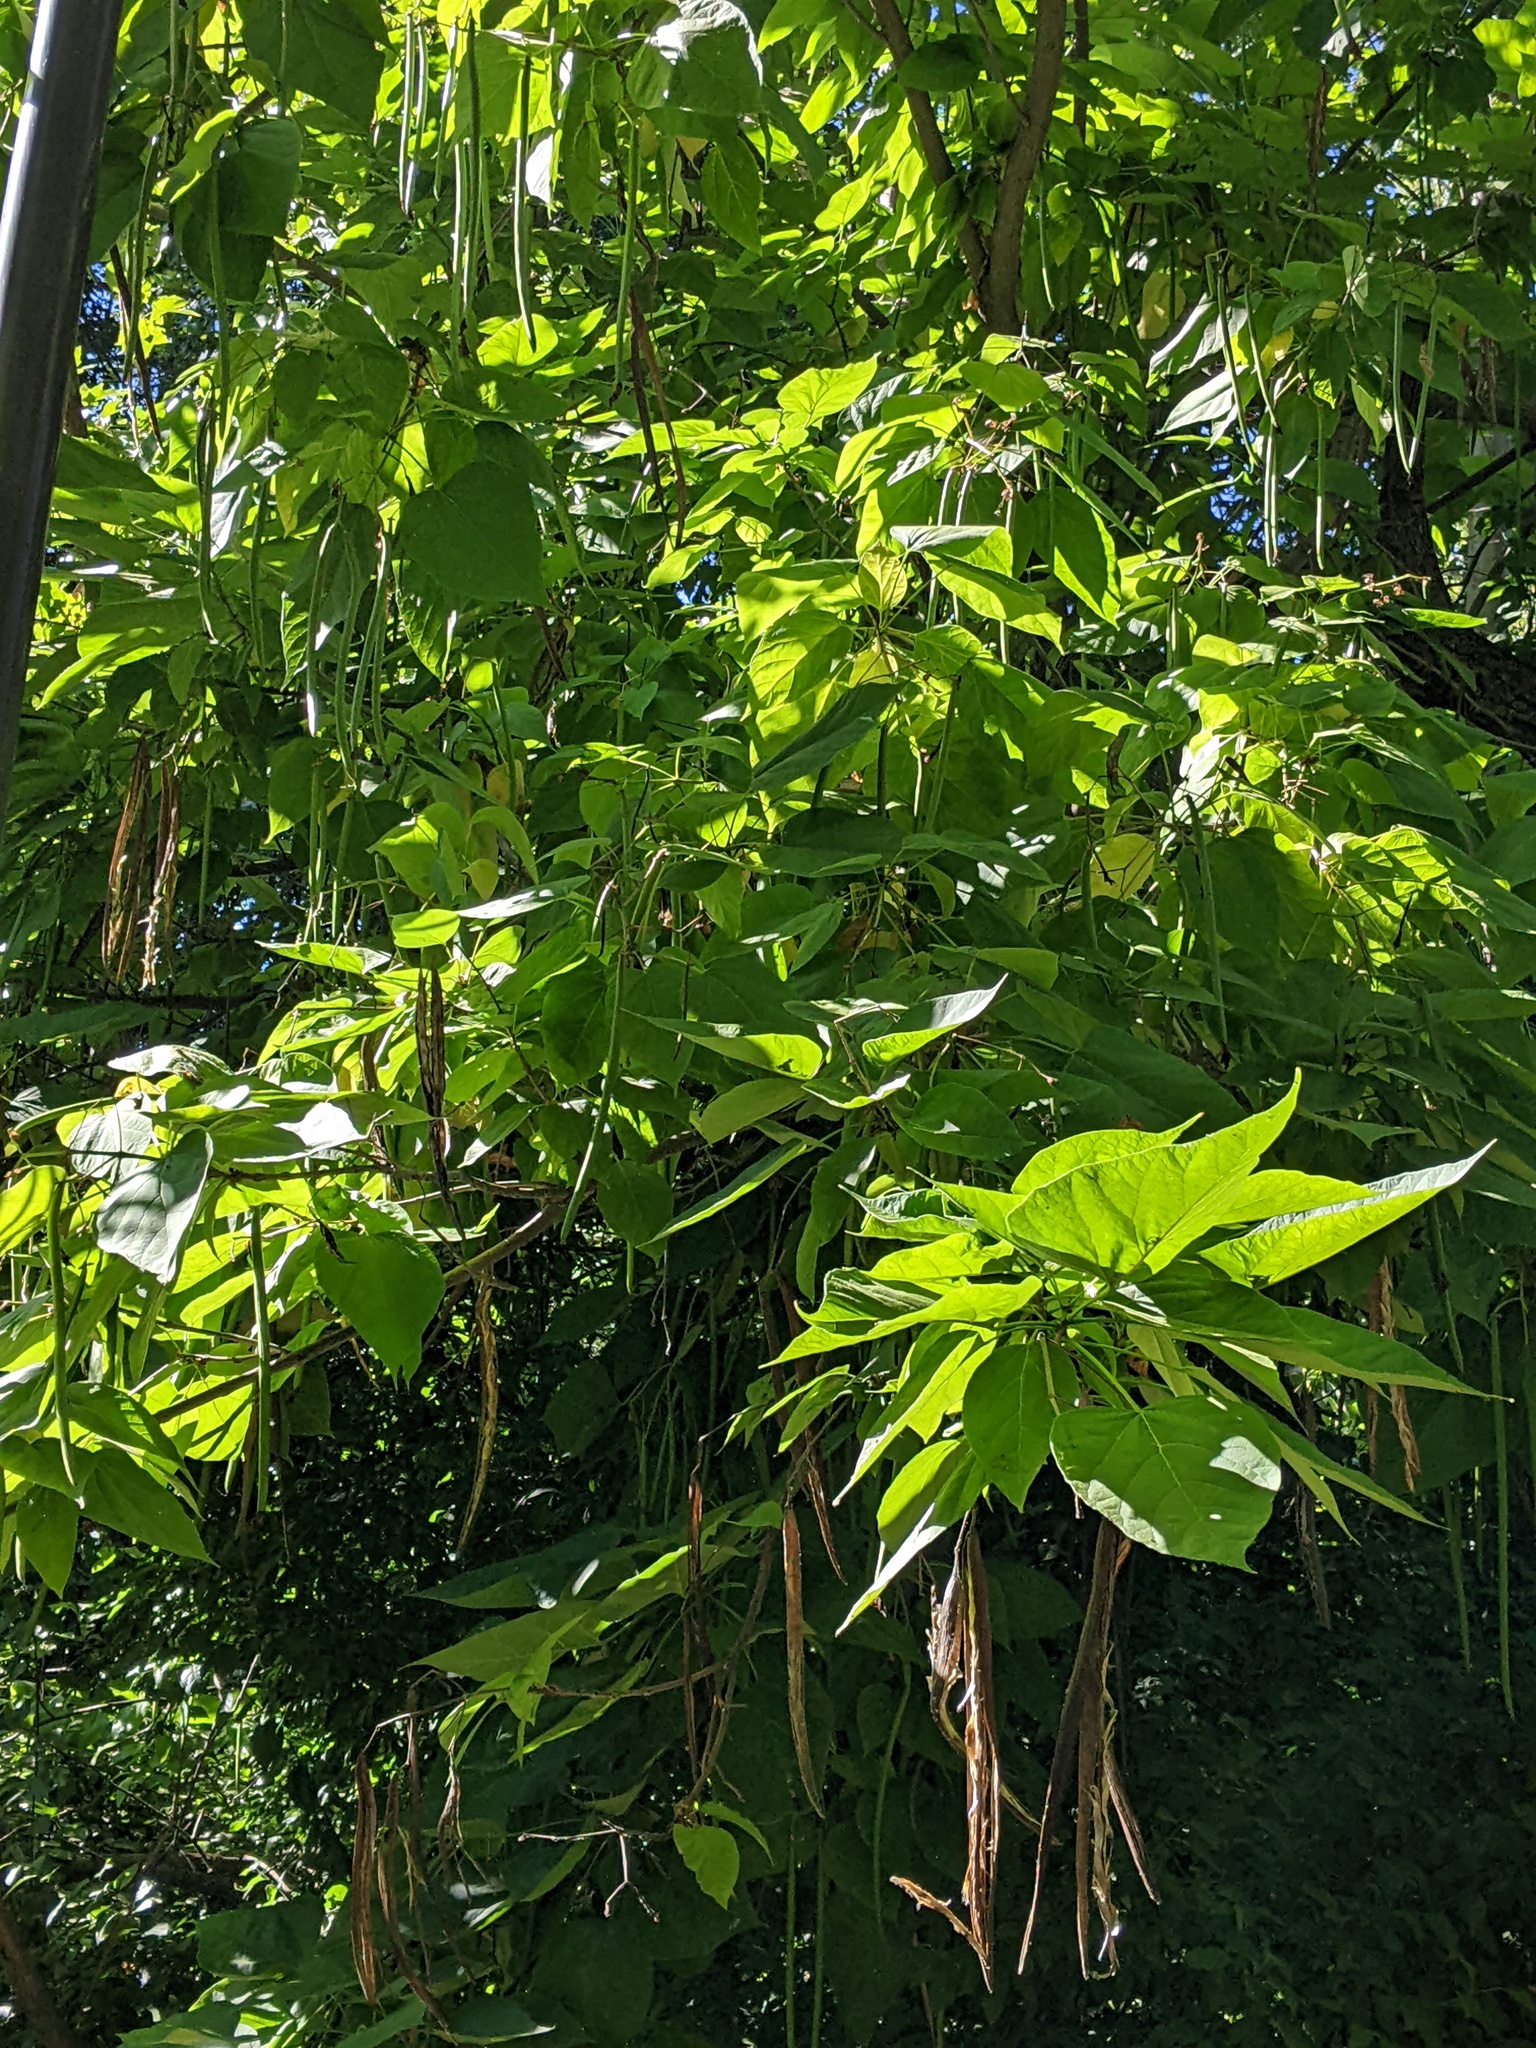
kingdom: Plantae
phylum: Tracheophyta
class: Magnoliopsida
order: Lamiales
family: Bignoniaceae
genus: Catalpa
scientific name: Catalpa speciosa
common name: Northern catalpa
